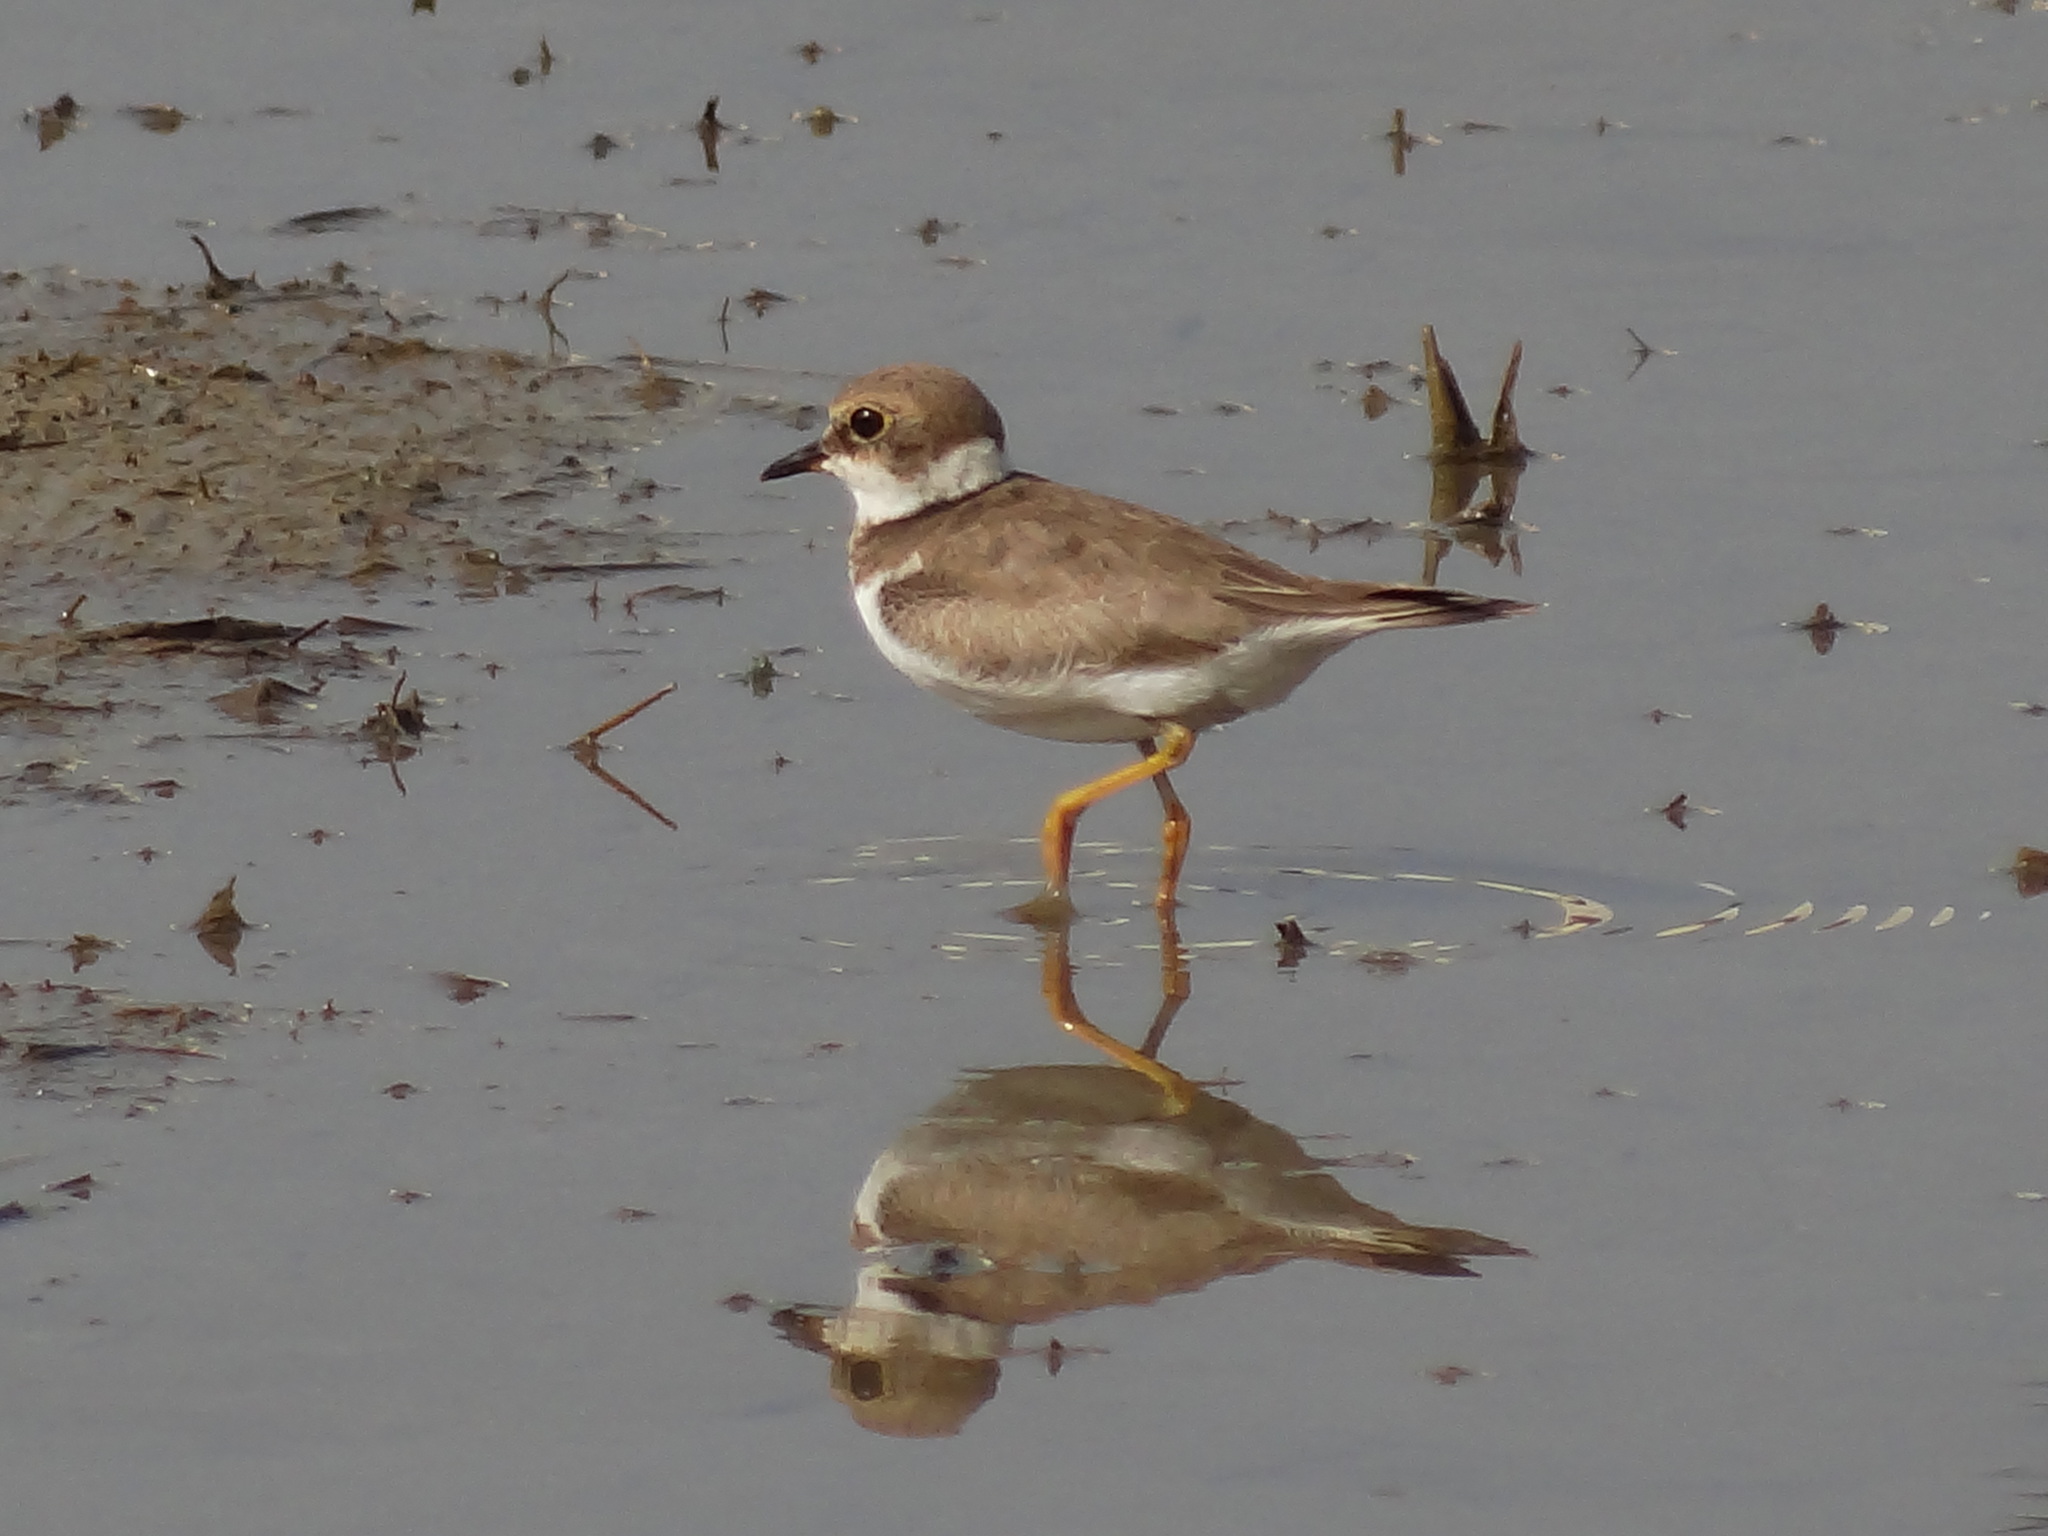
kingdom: Animalia
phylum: Chordata
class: Aves
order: Charadriiformes
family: Charadriidae
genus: Charadrius
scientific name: Charadrius dubius
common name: Little ringed plover
